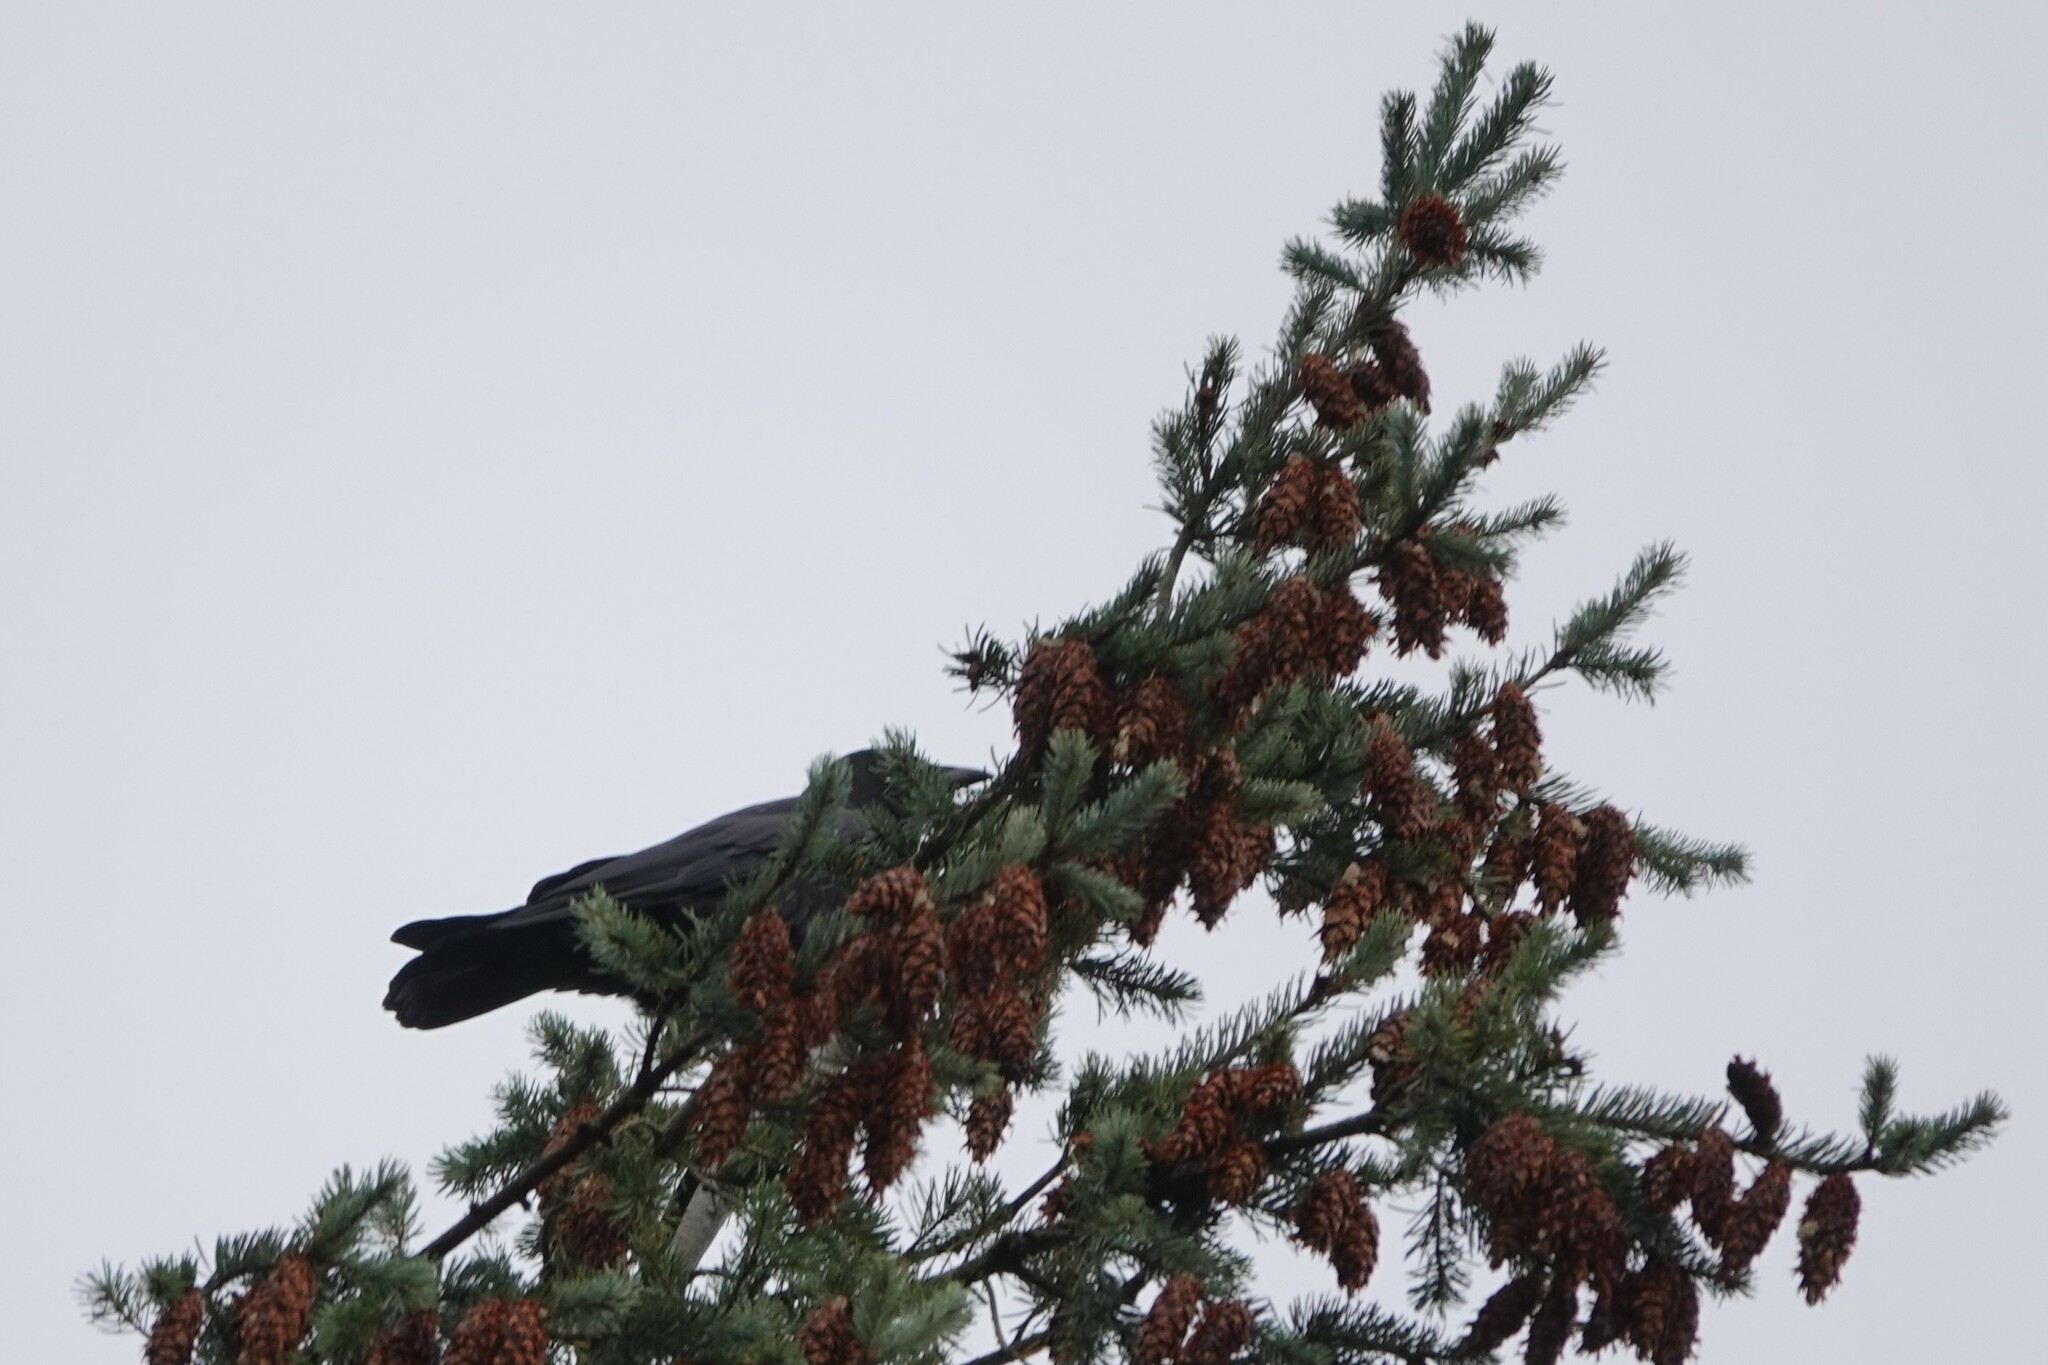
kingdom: Animalia
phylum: Chordata
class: Aves
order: Passeriformes
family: Corvidae
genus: Corvus
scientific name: Corvus brachyrhynchos
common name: American crow
